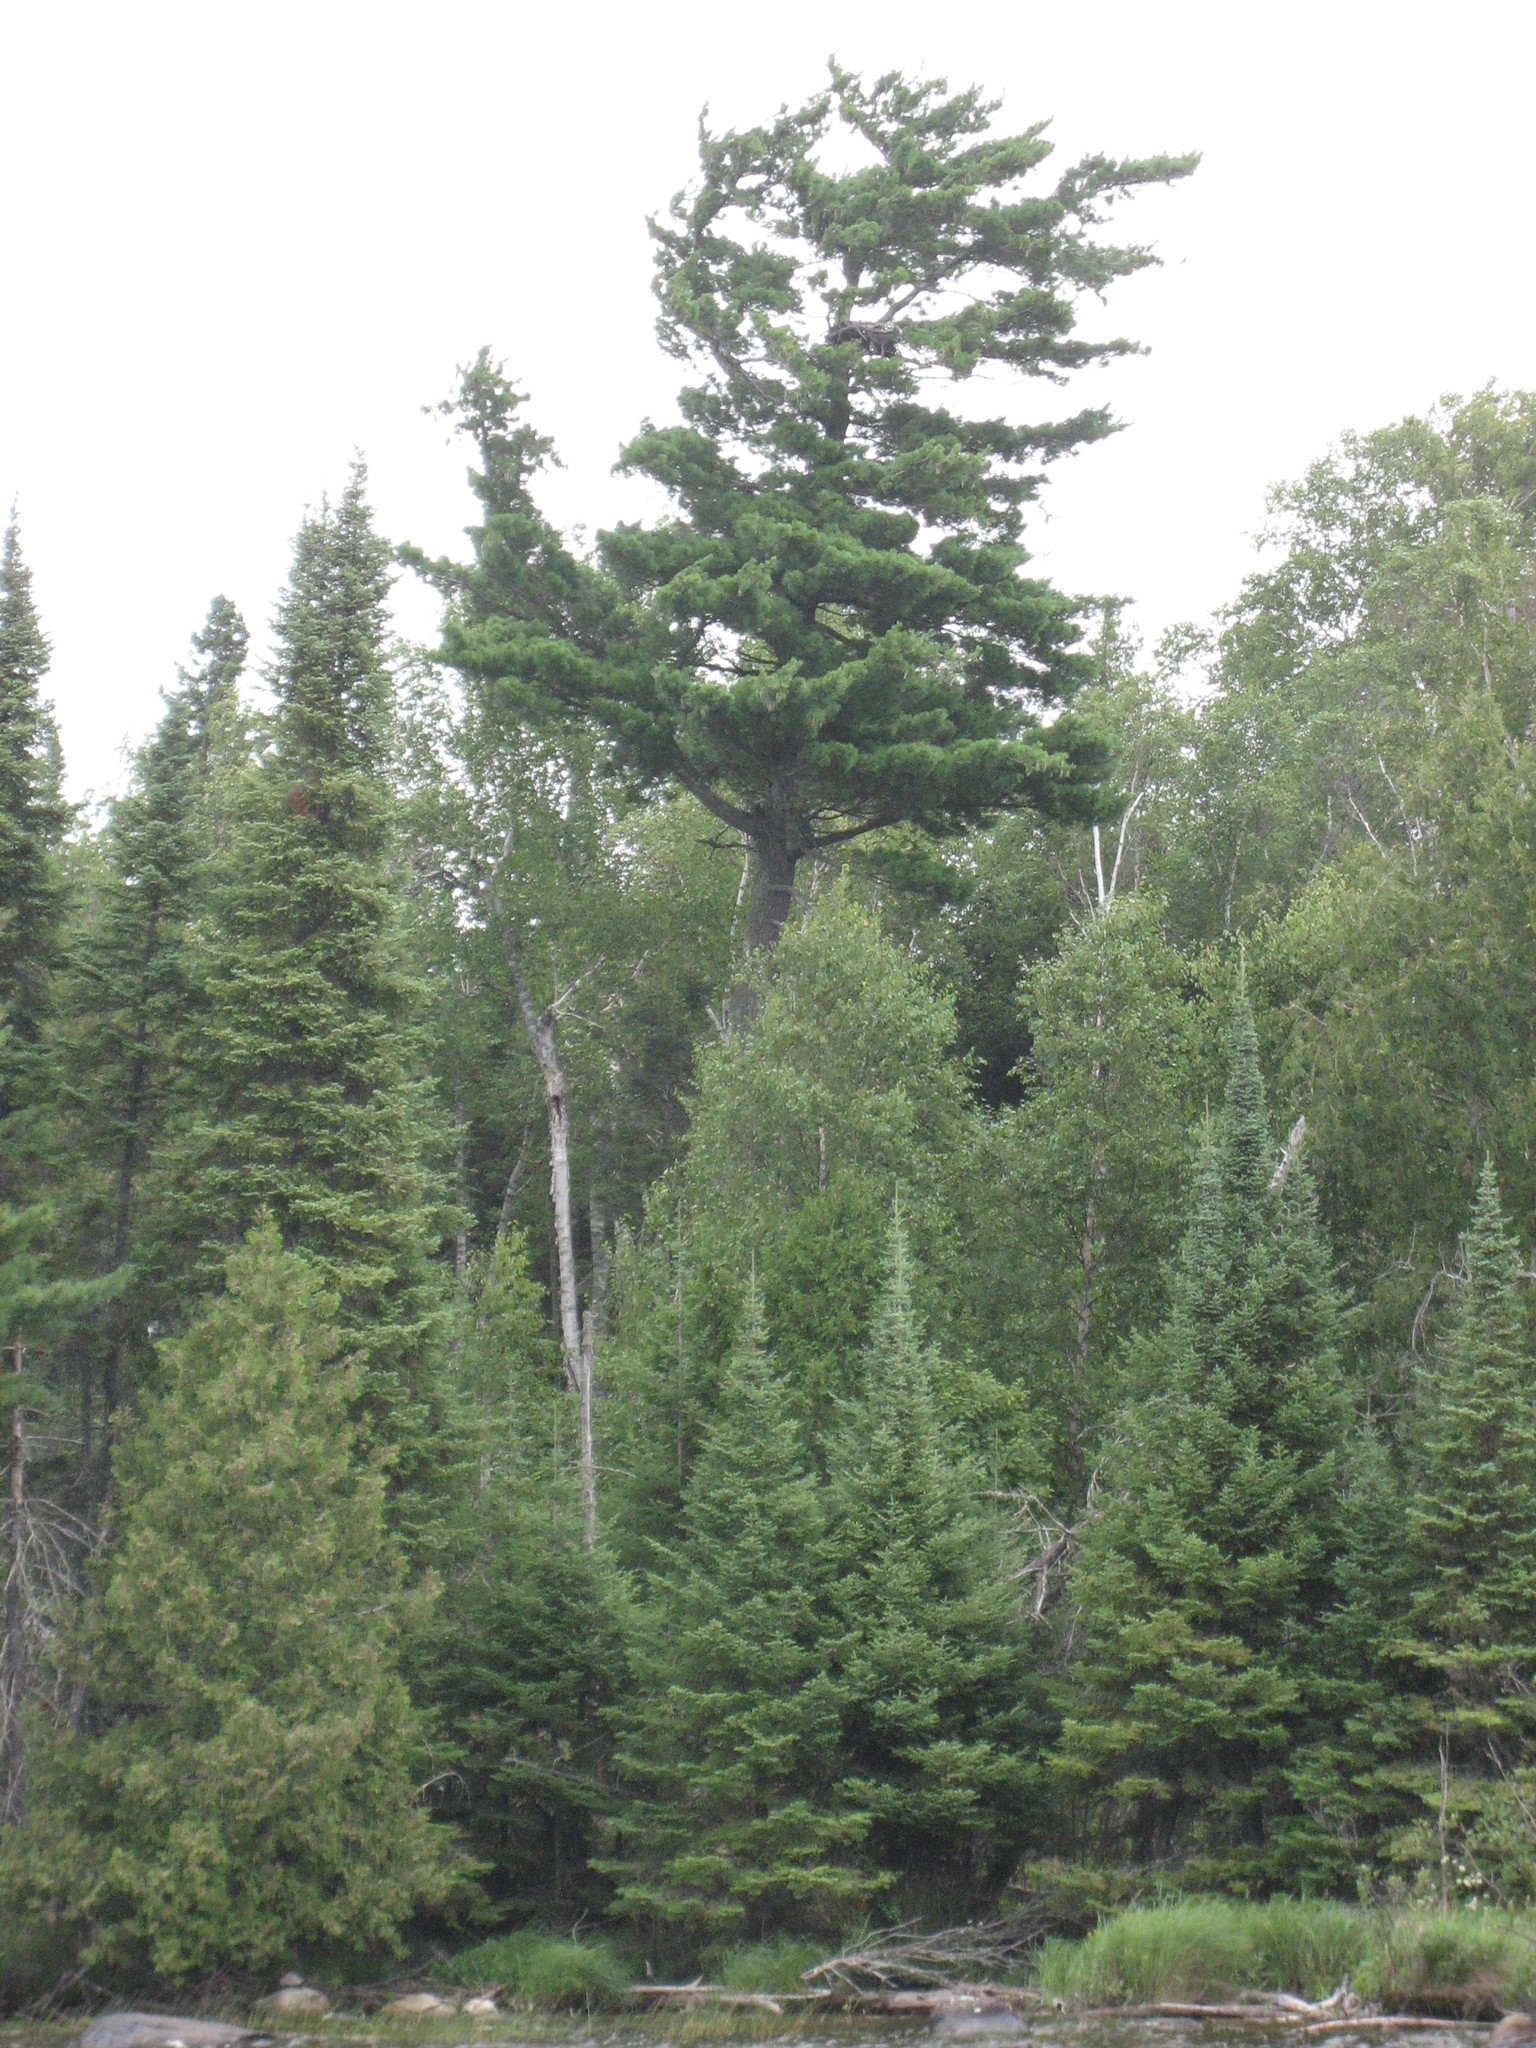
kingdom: Plantae
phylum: Tracheophyta
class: Pinopsida
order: Pinales
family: Pinaceae
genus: Pinus
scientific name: Pinus strobus
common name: Weymouth pine
